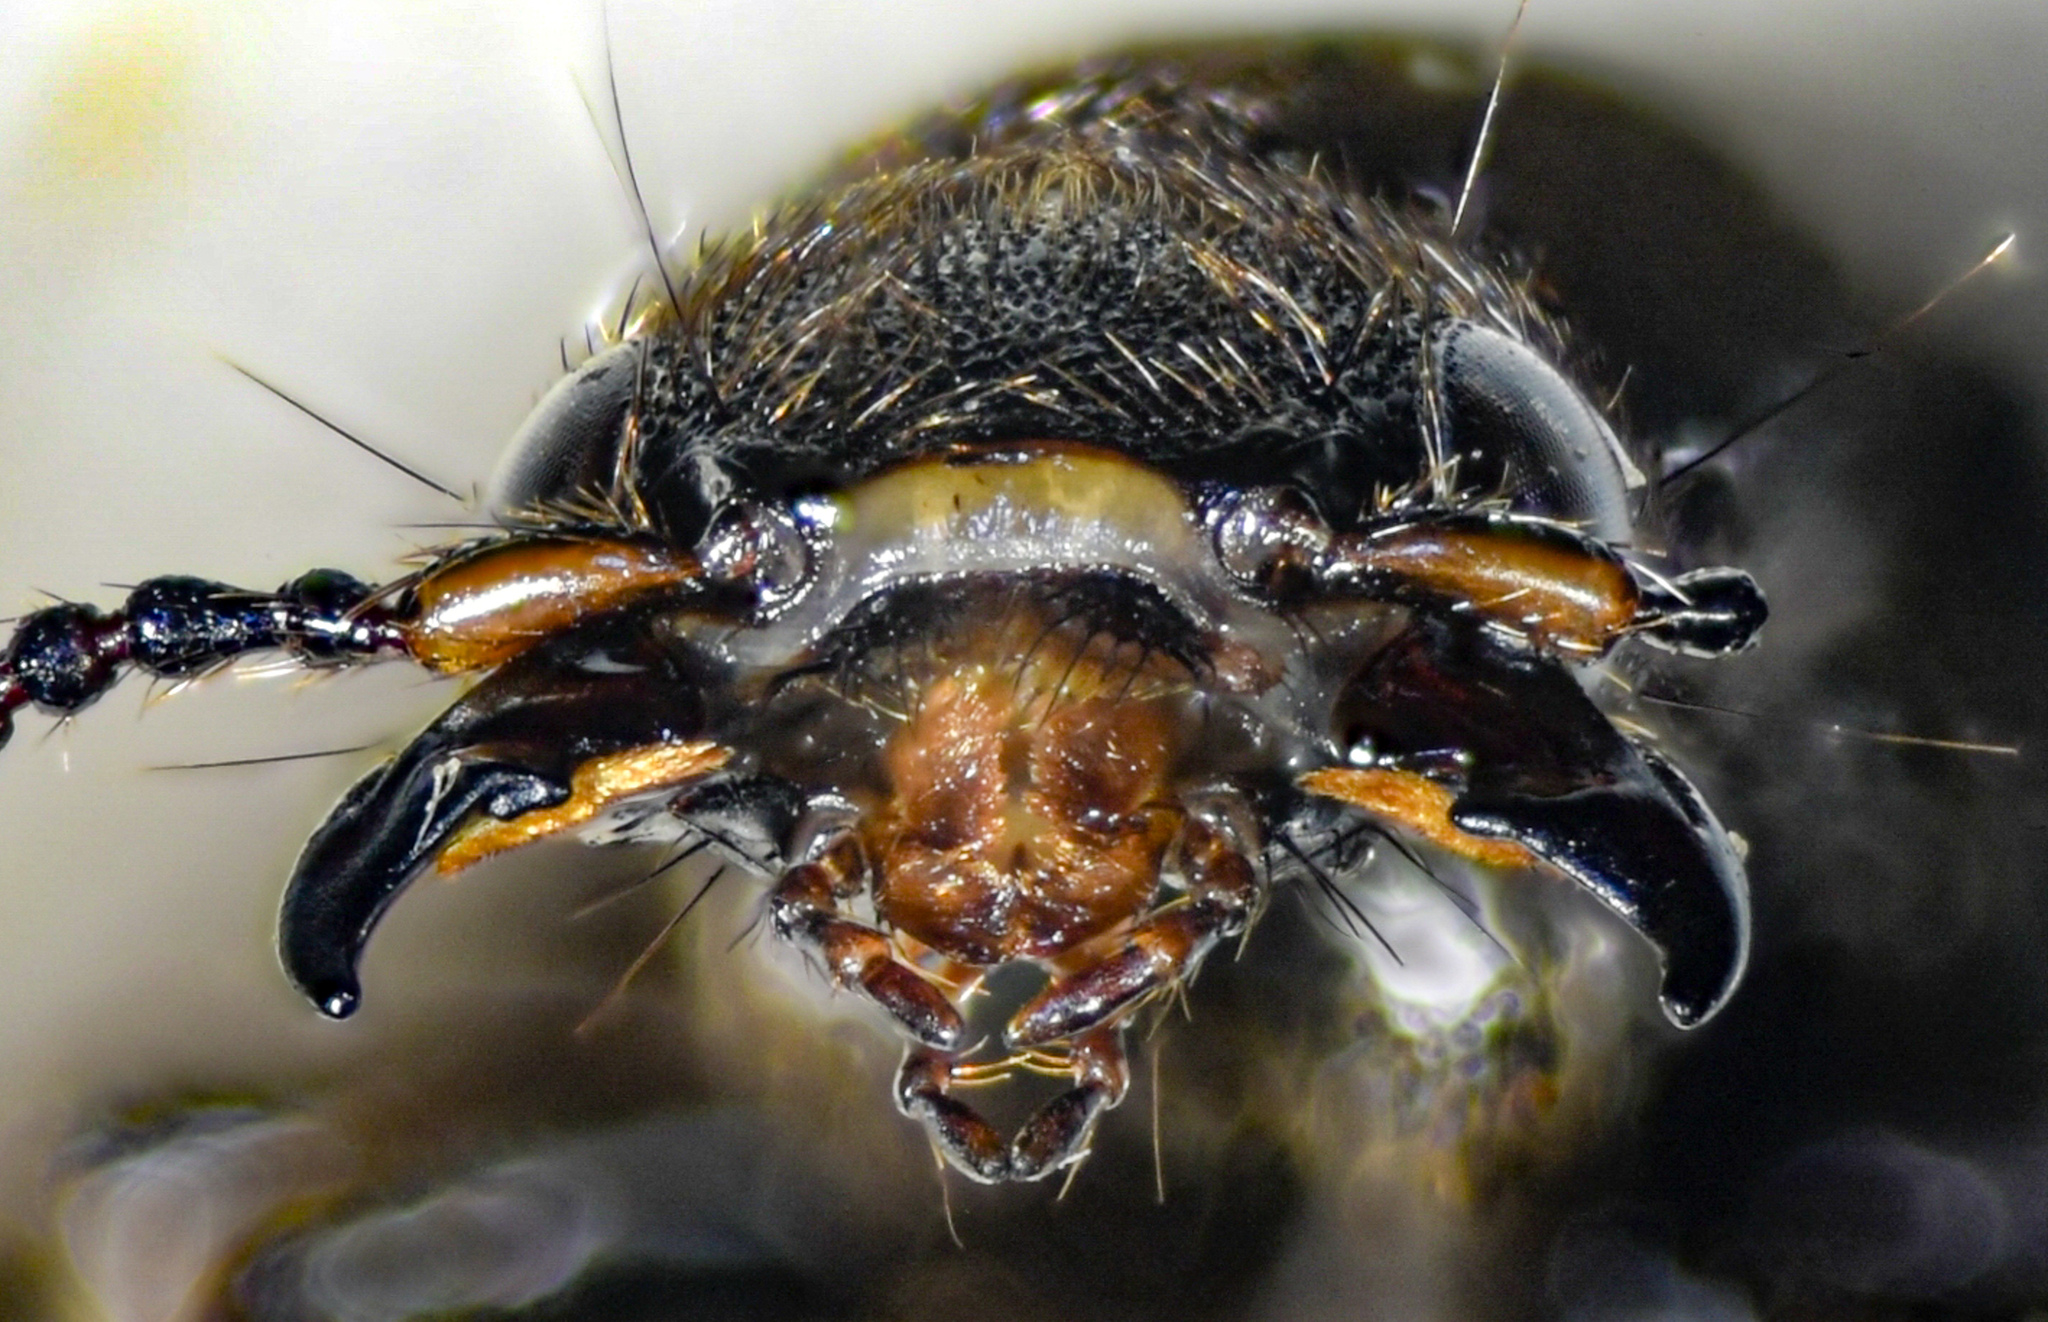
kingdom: Animalia
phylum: Arthropoda
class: Insecta
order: Coleoptera
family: Staphylinidae
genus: Platydracus
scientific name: Platydracus tarsalis
